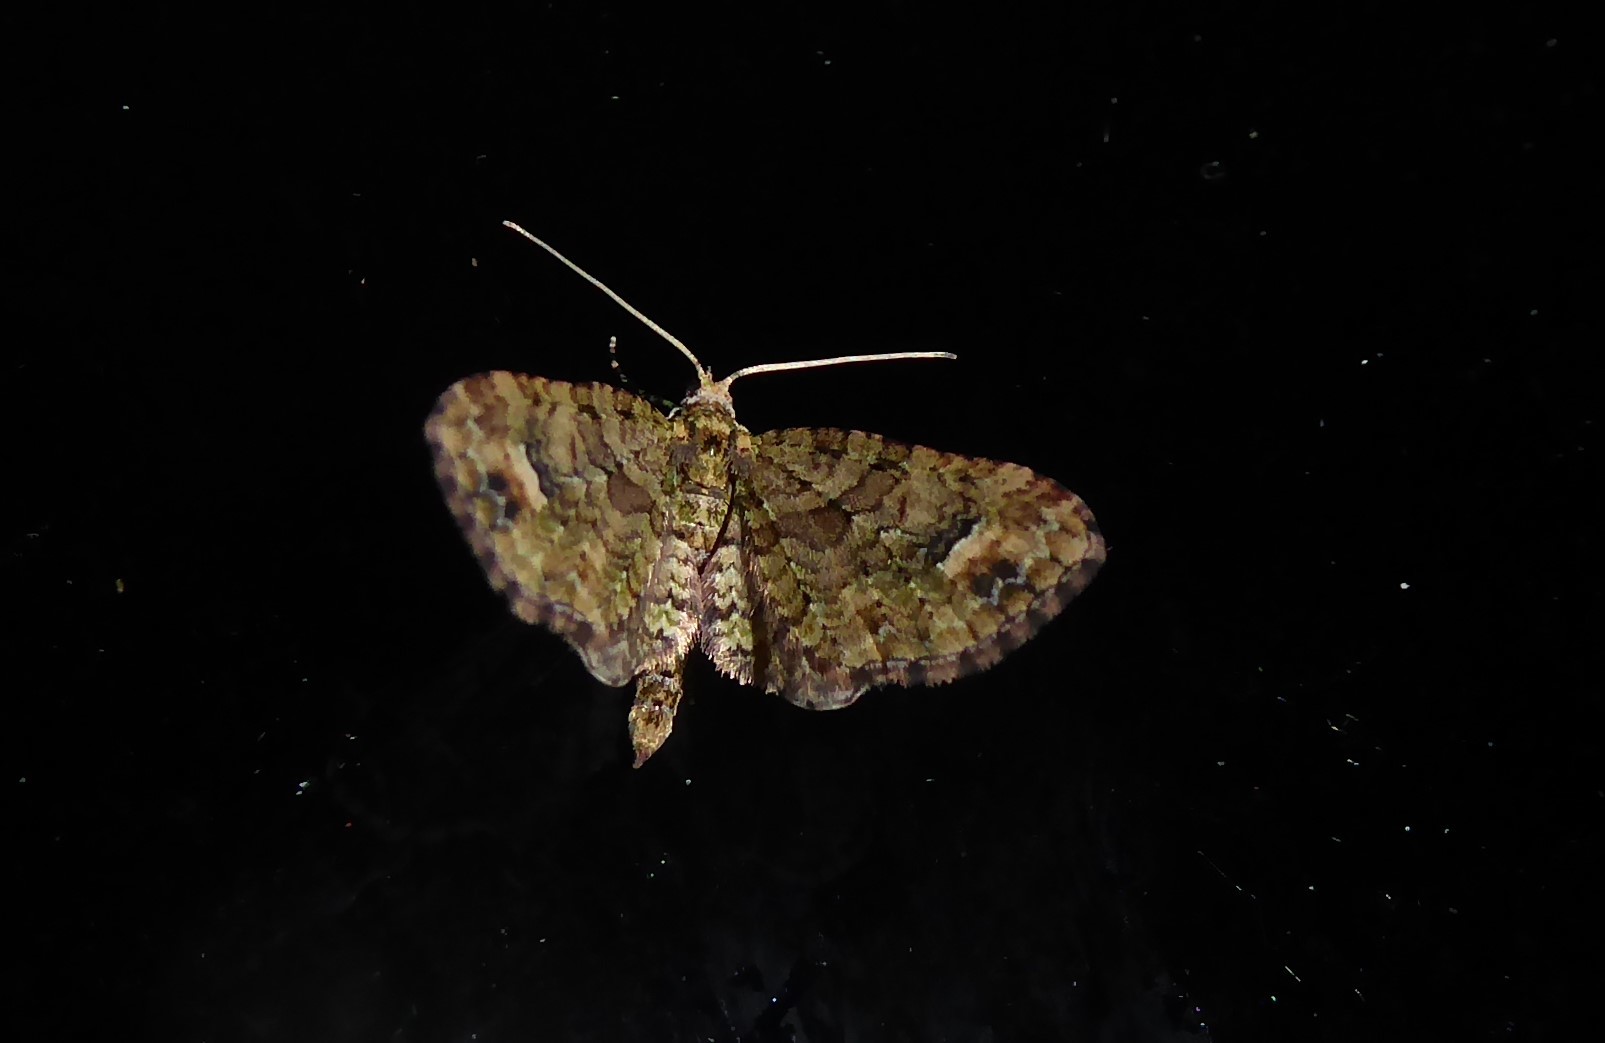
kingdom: Animalia
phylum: Arthropoda
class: Insecta
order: Lepidoptera
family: Geometridae
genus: Idaea
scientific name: Idaea mutanda
